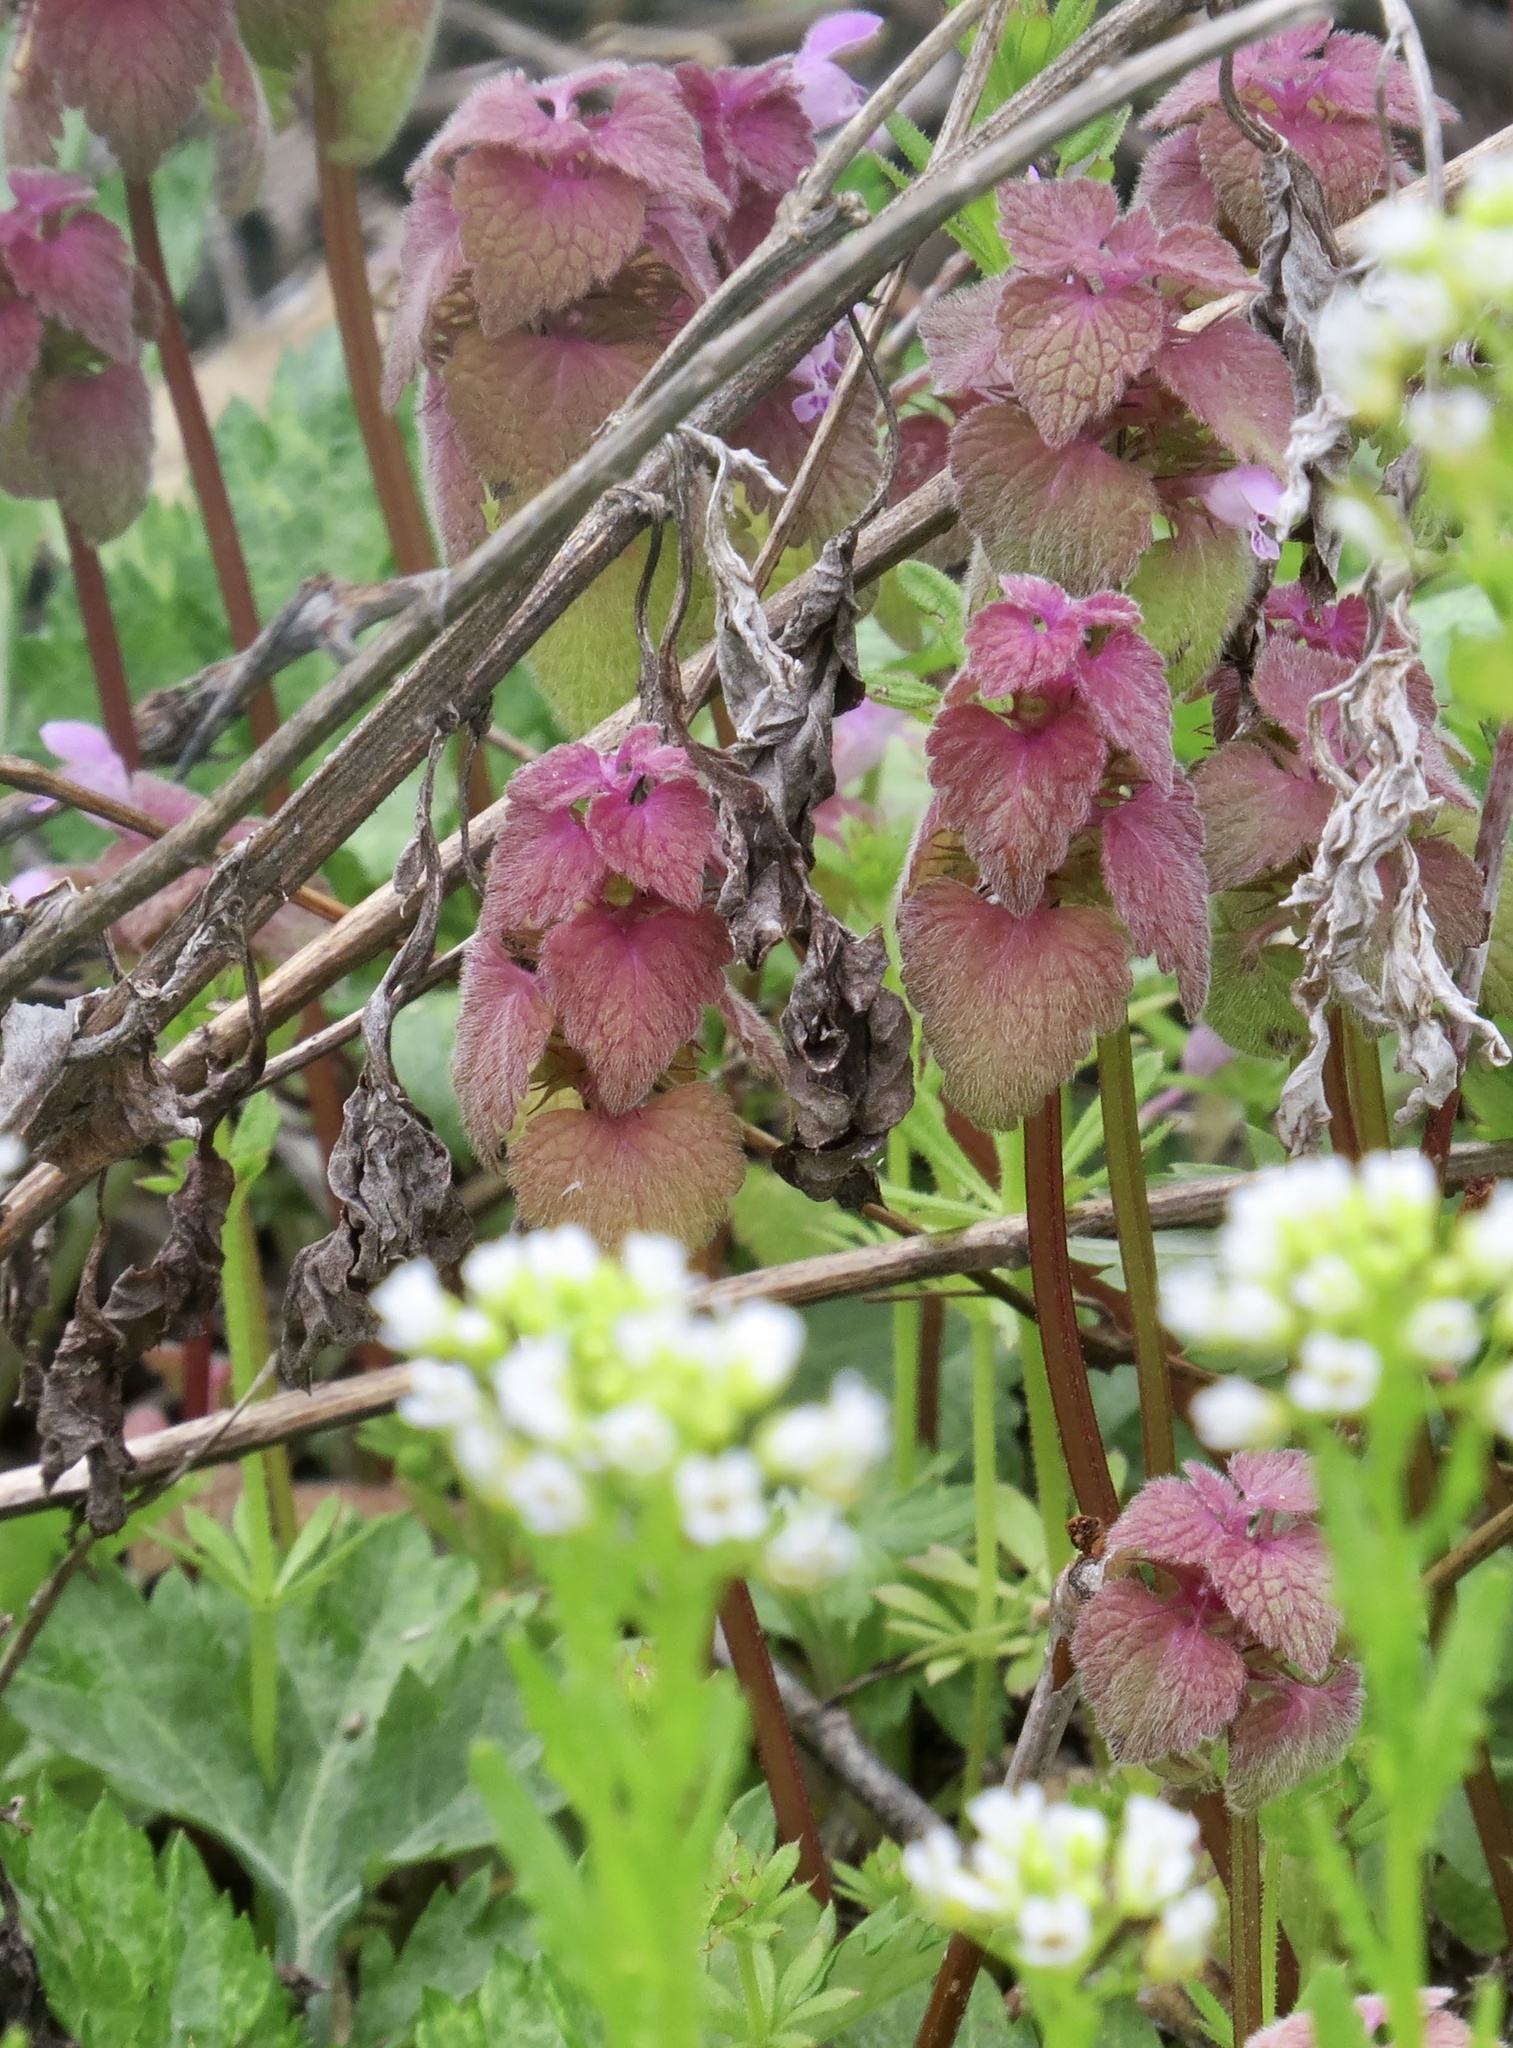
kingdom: Plantae
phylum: Tracheophyta
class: Magnoliopsida
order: Lamiales
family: Lamiaceae
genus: Lamium
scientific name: Lamium purpureum
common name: Red dead-nettle
